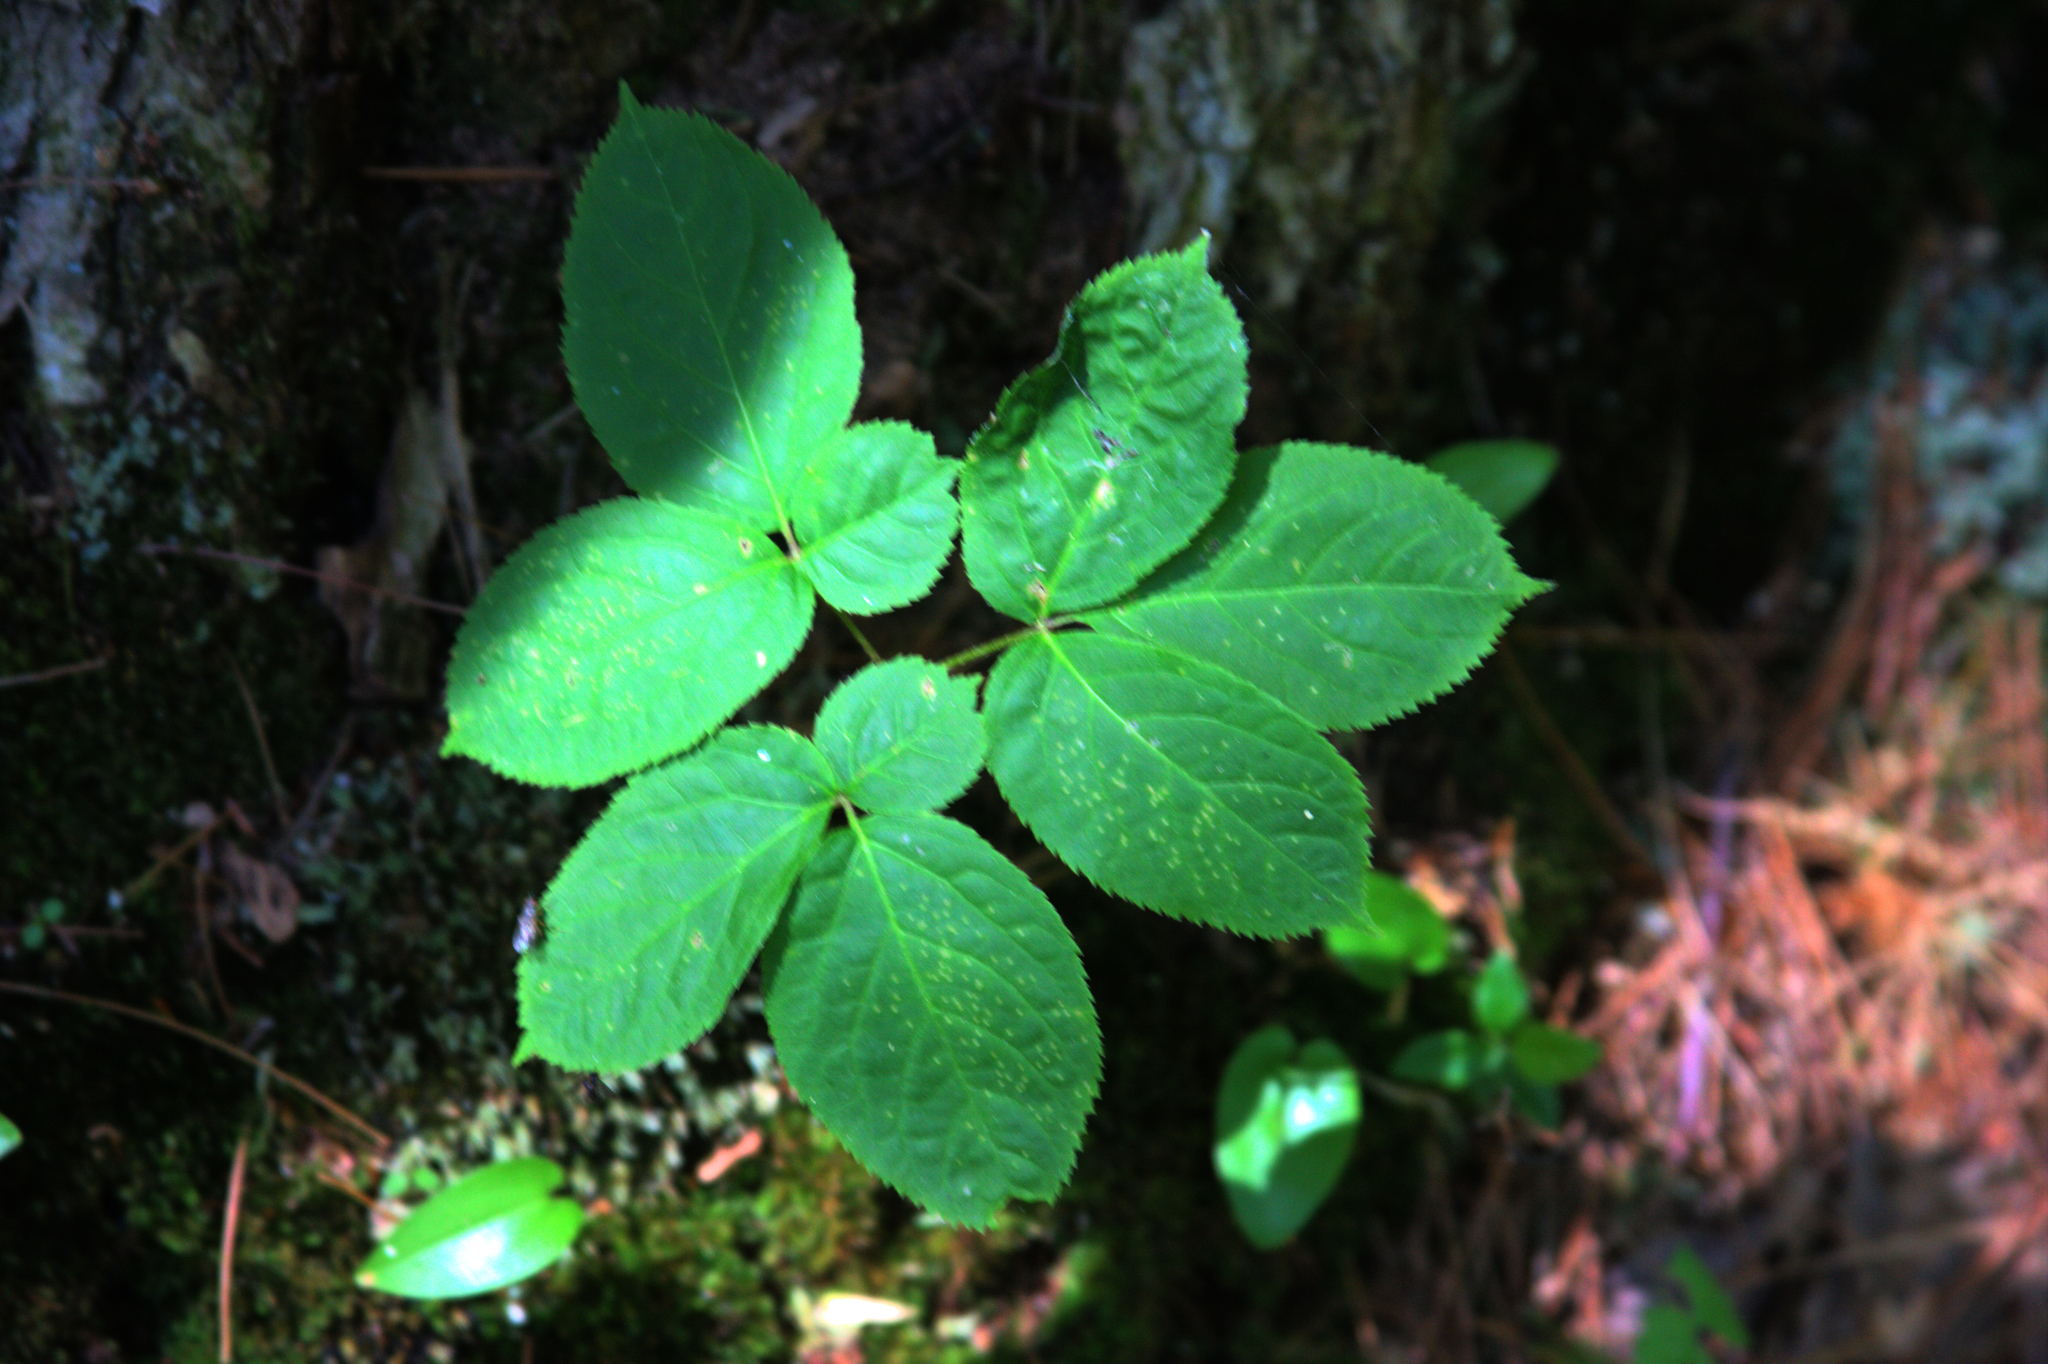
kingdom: Plantae
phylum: Tracheophyta
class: Magnoliopsida
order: Apiales
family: Araliaceae
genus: Aralia
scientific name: Aralia nudicaulis
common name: Wild sarsaparilla
